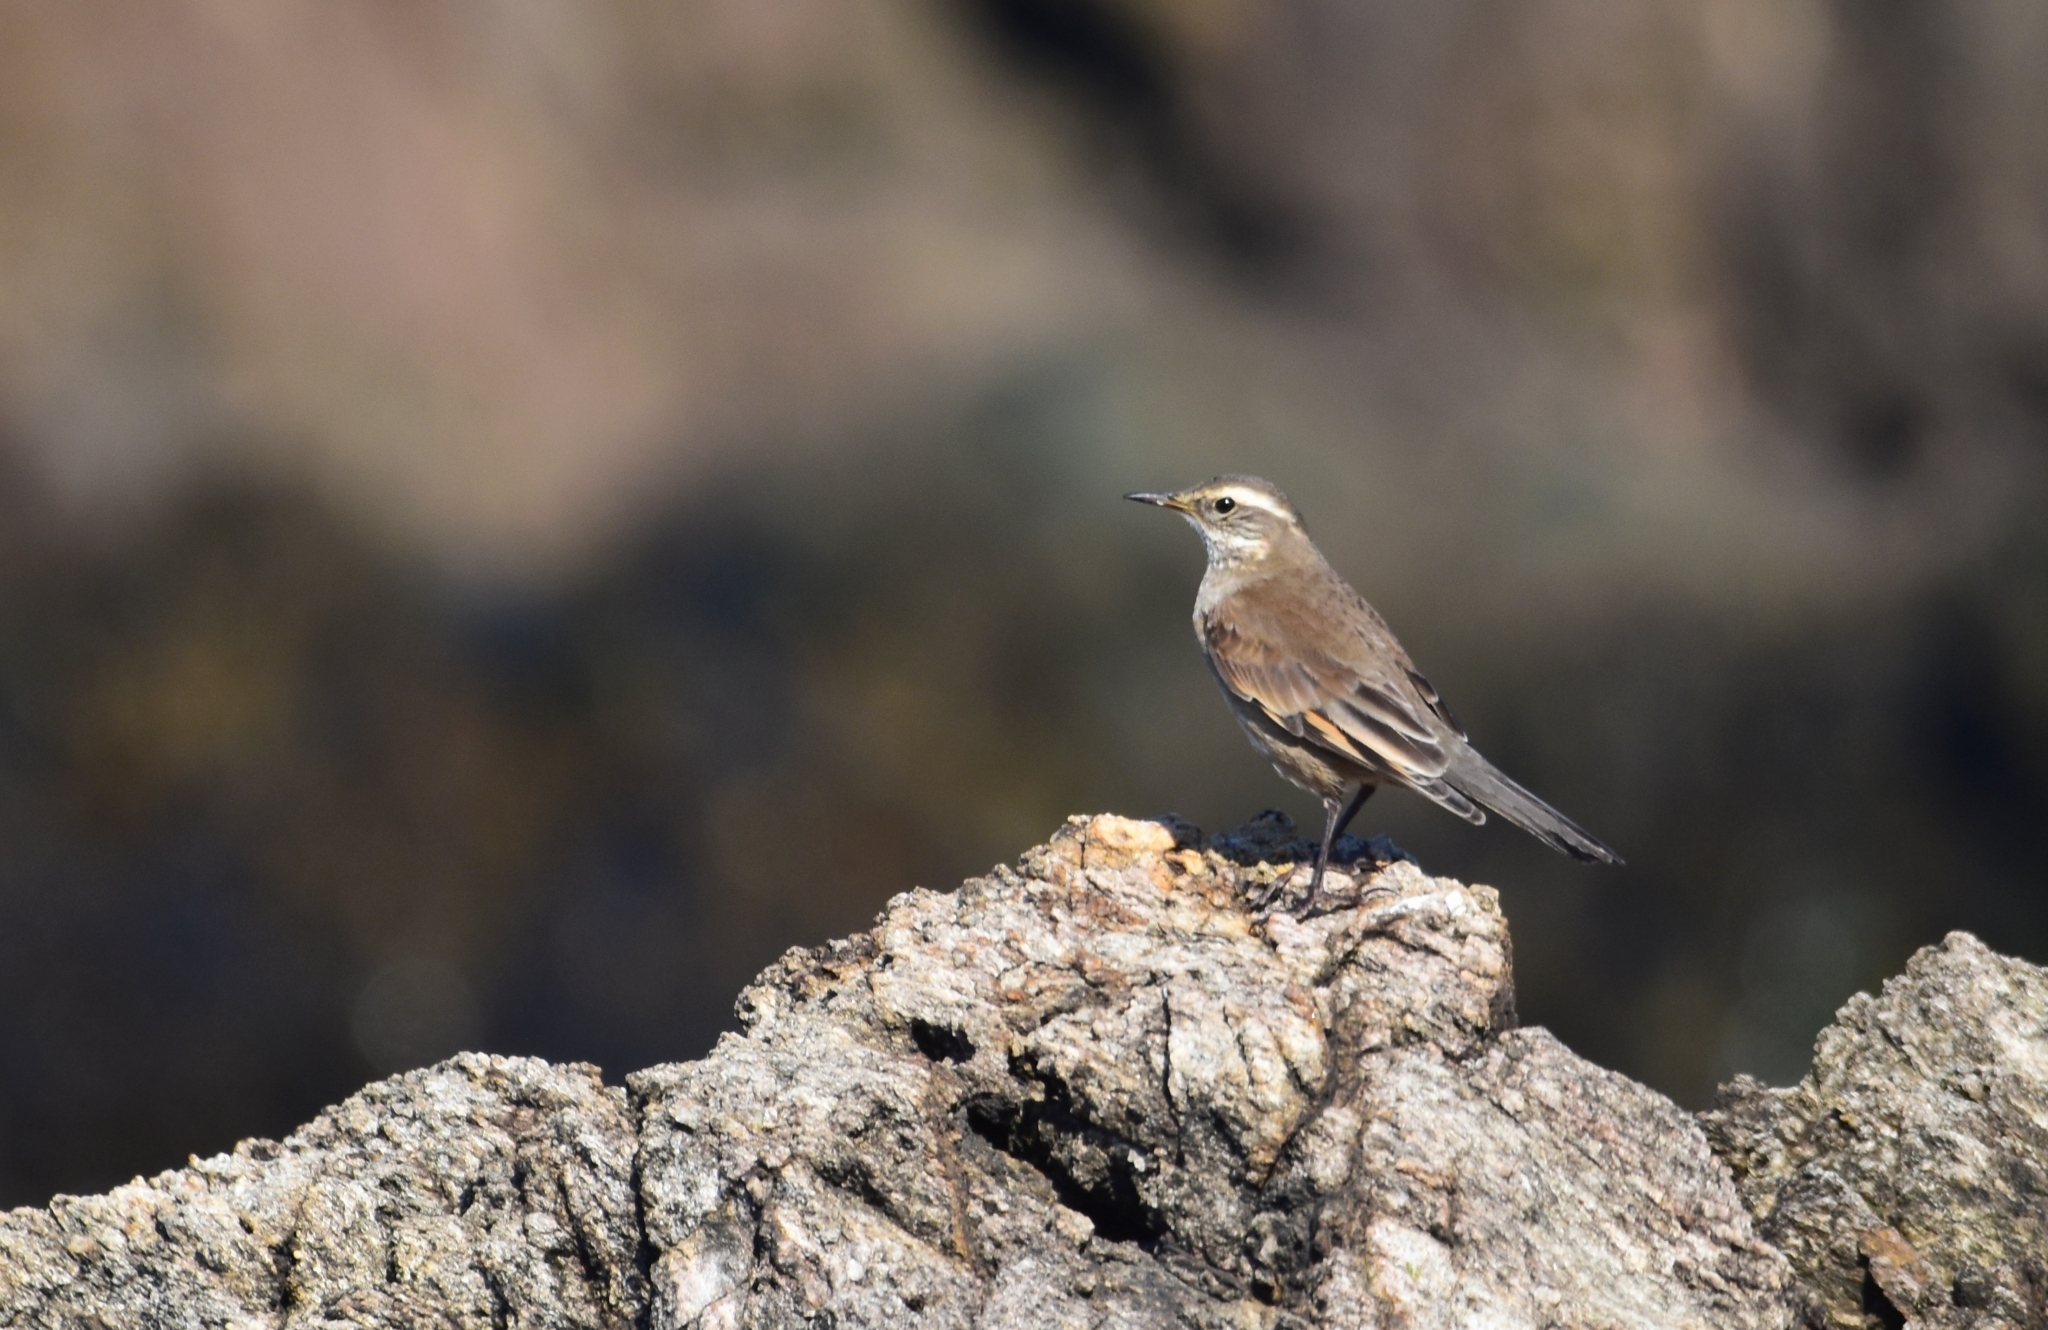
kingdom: Animalia
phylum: Chordata
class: Aves
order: Passeriformes
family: Furnariidae
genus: Cinclodes
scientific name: Cinclodes fuscus
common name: Buff-winged cinclodes
